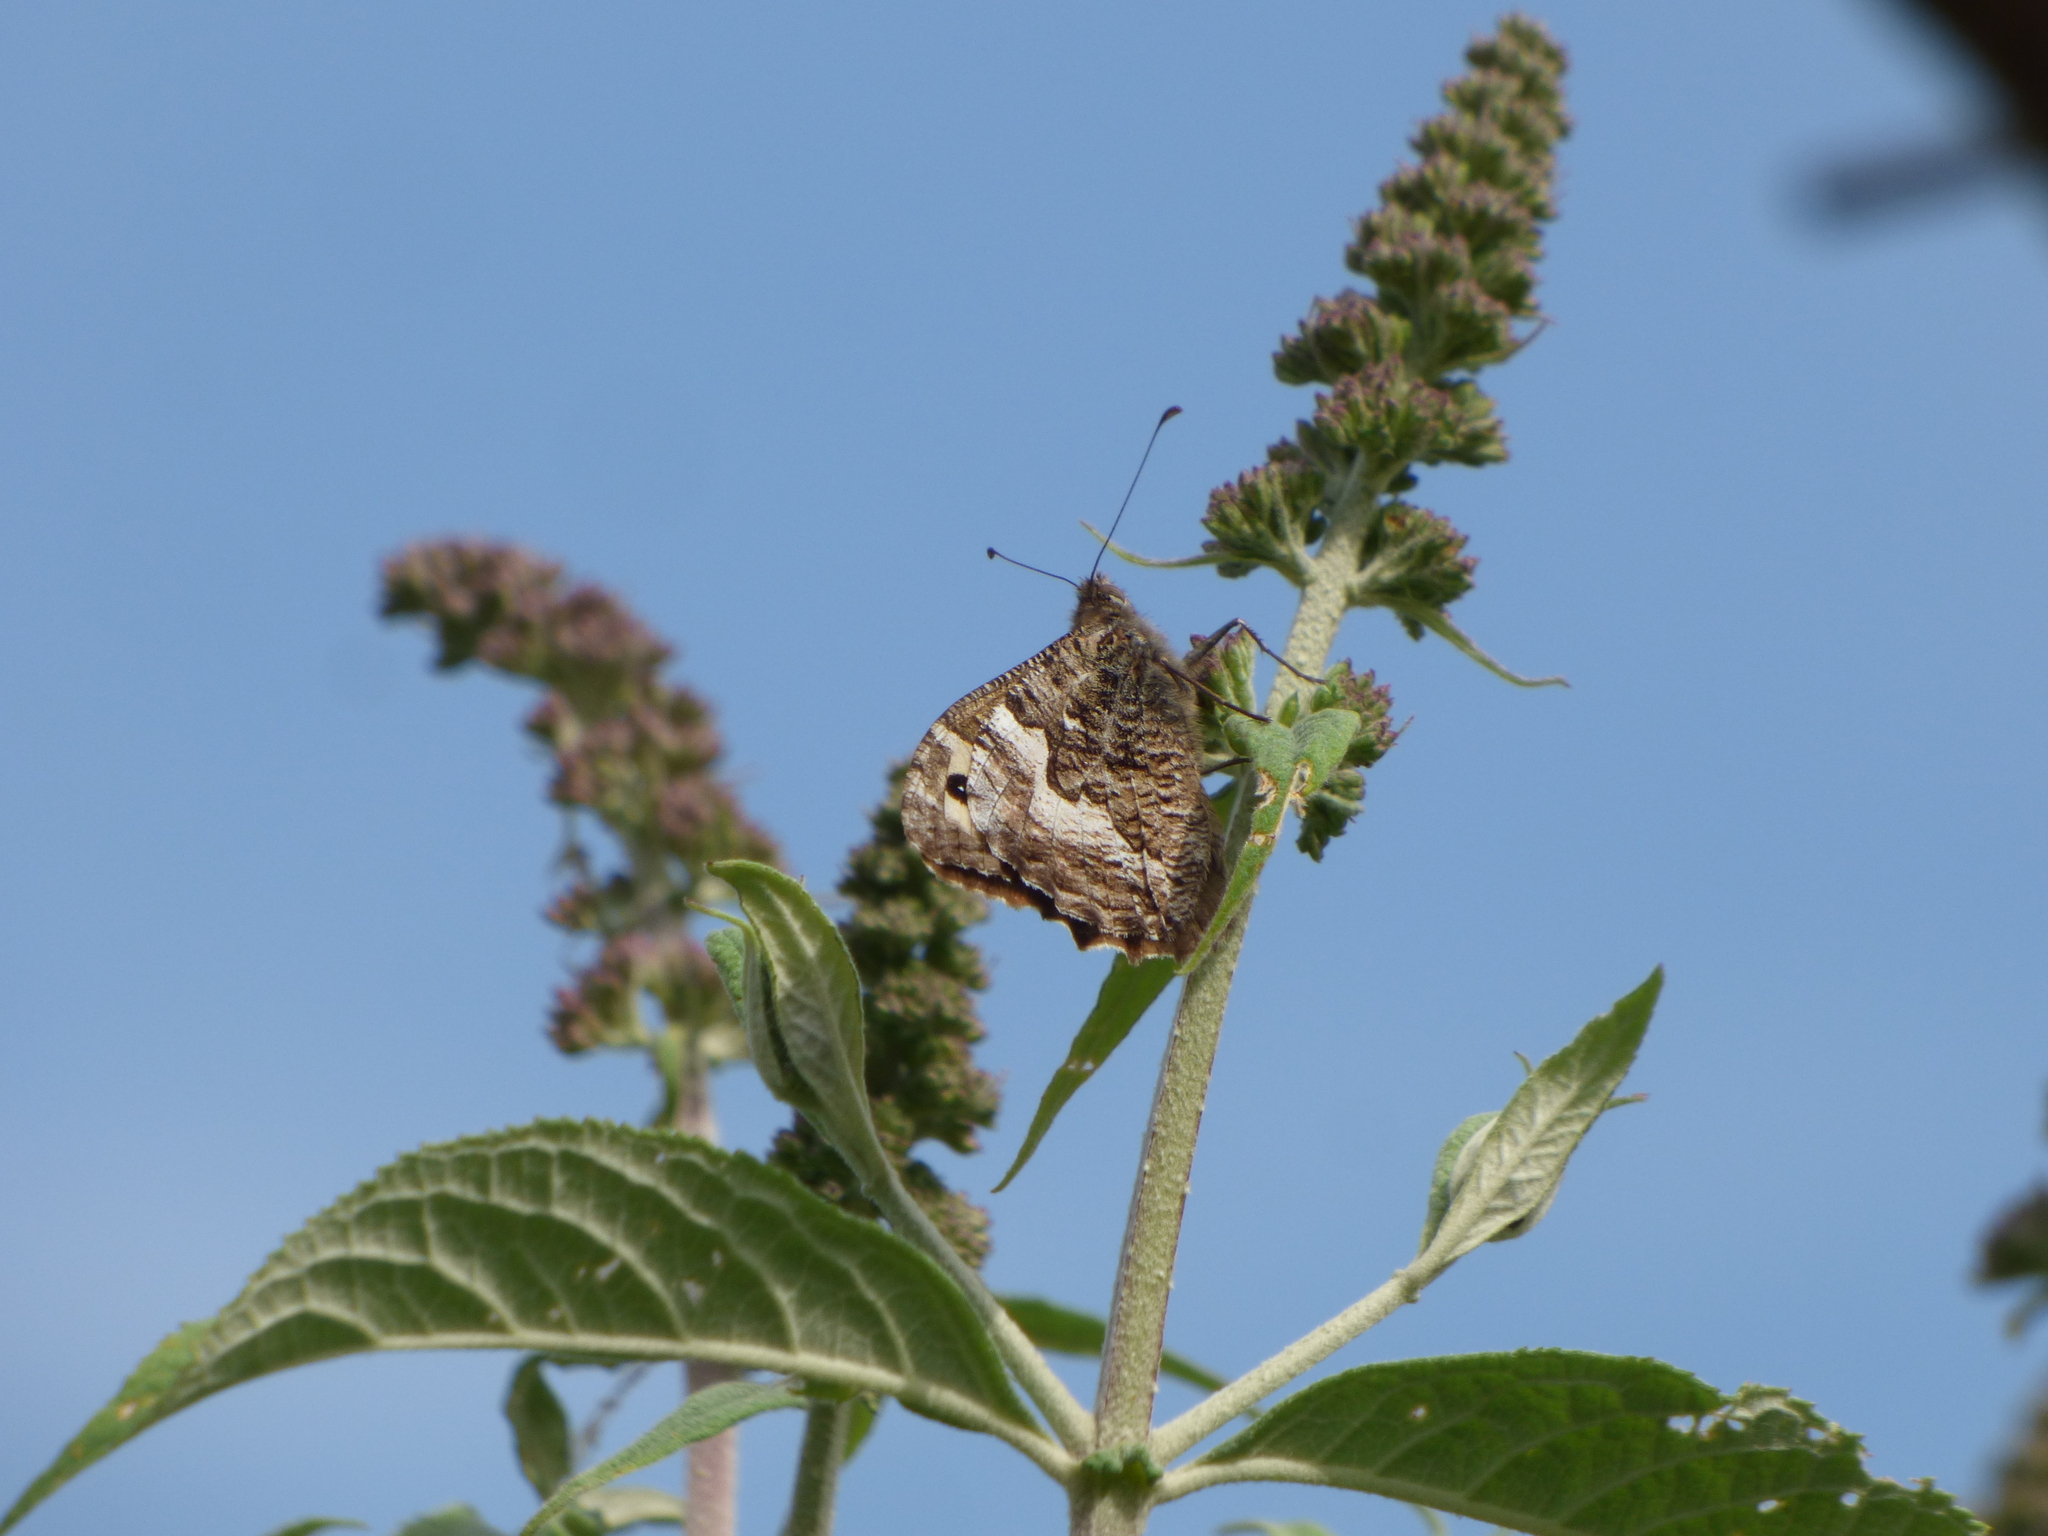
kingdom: Animalia
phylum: Arthropoda
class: Insecta
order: Lepidoptera
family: Nymphalidae
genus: Hipparchia
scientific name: Hipparchia semele
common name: Grayling
